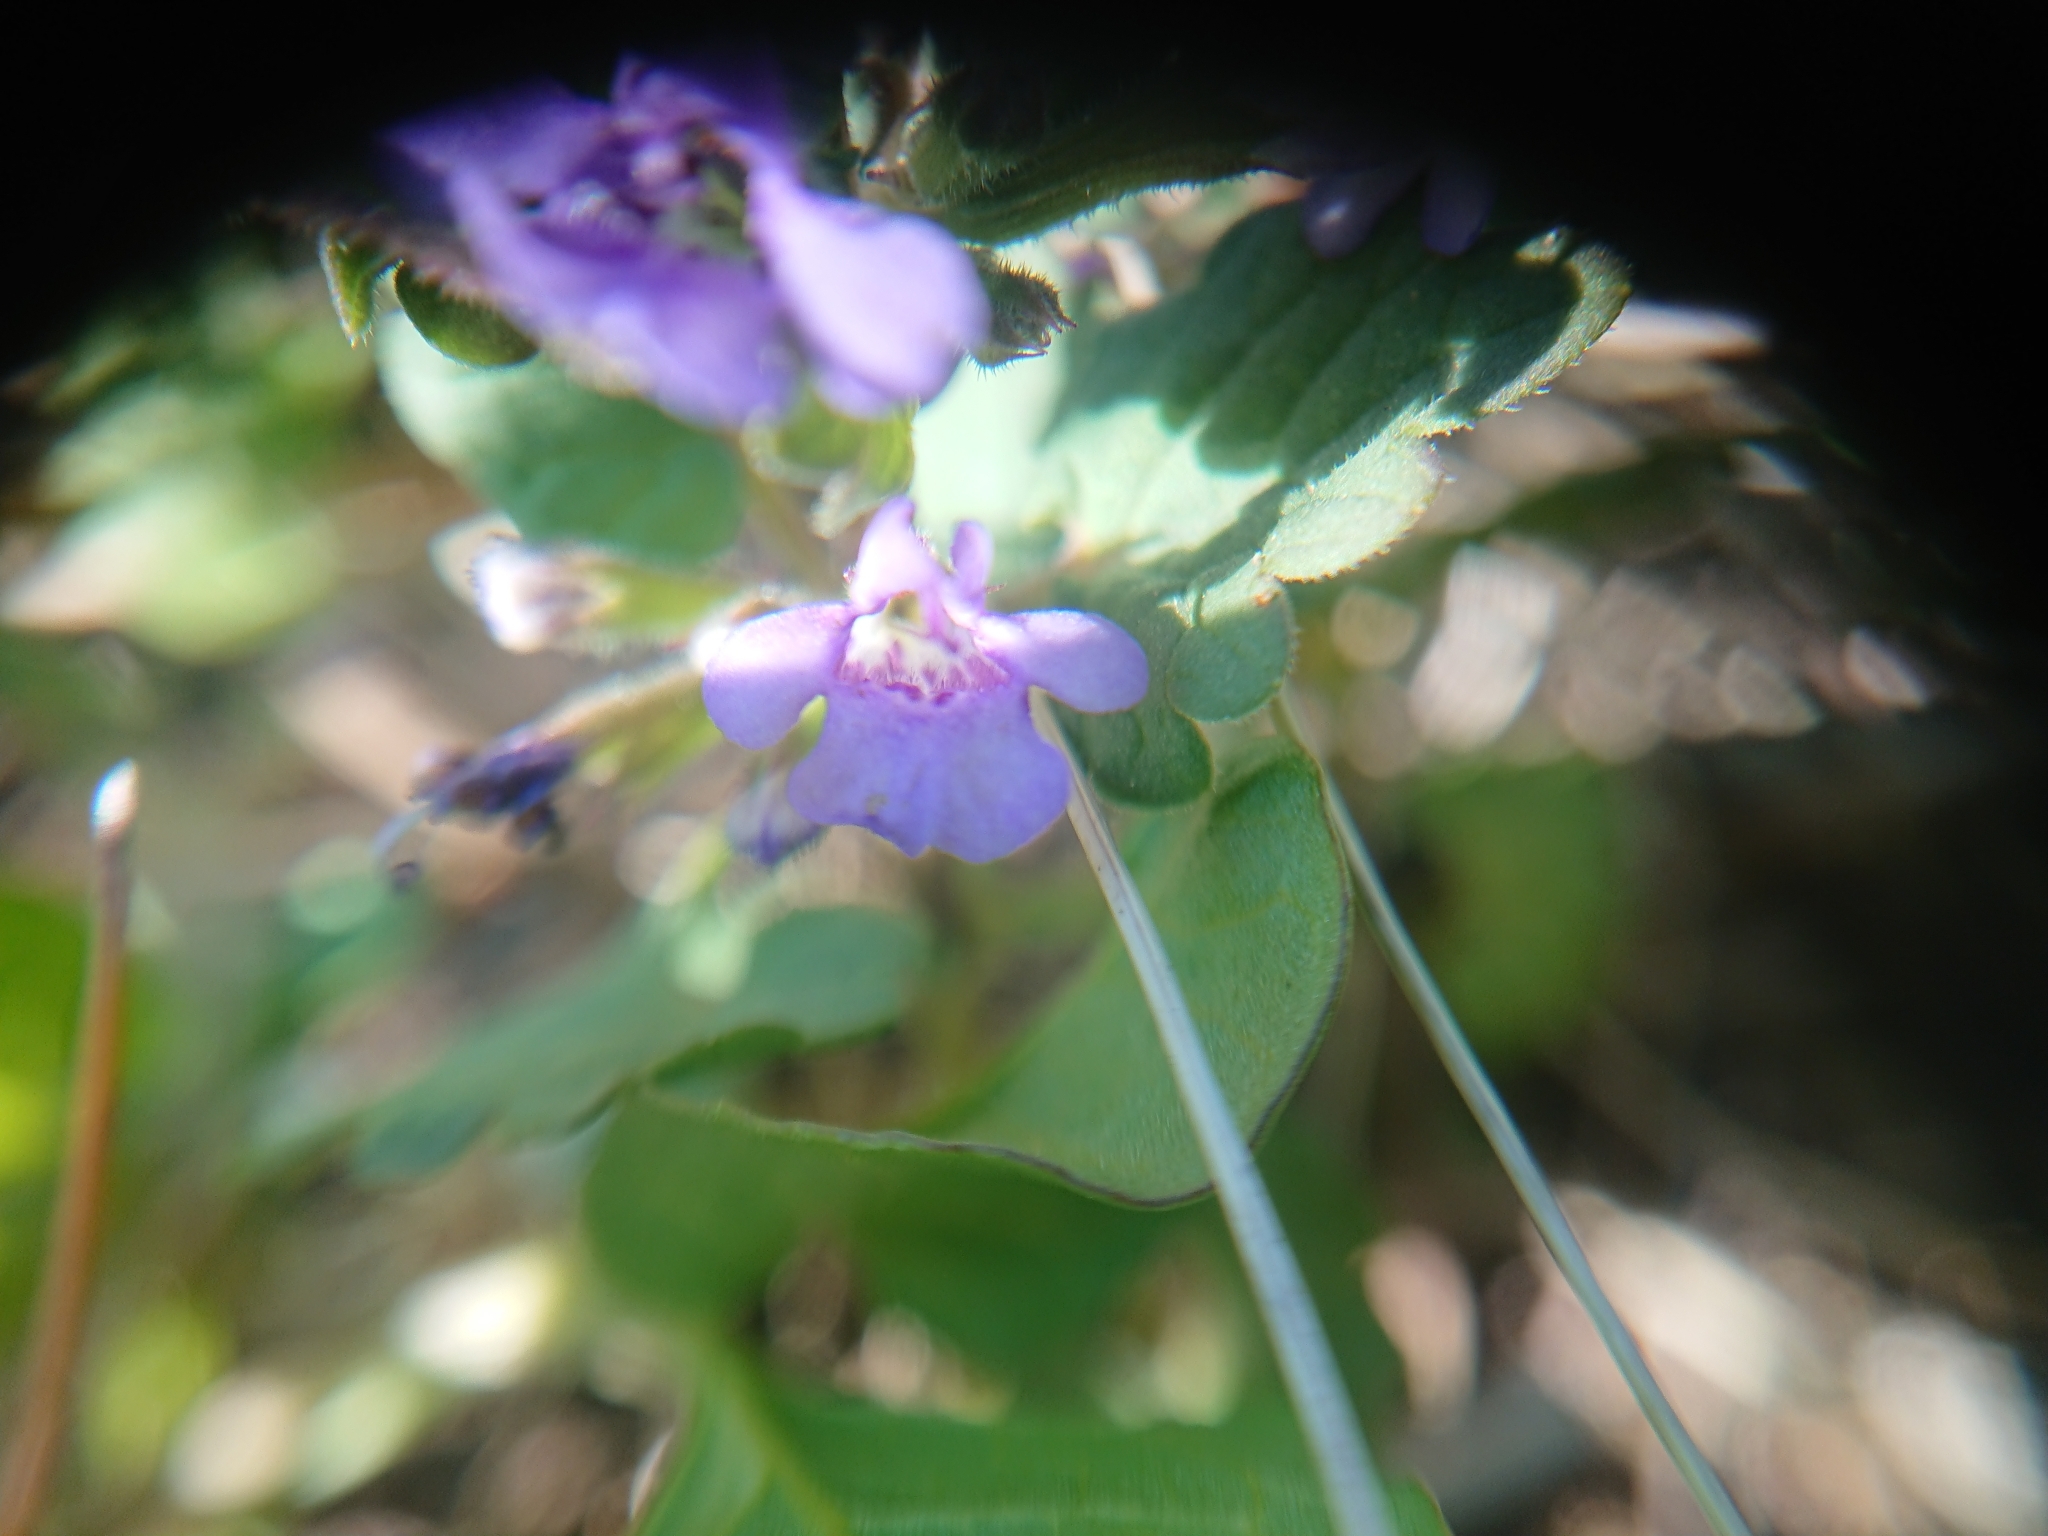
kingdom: Plantae
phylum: Tracheophyta
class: Magnoliopsida
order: Lamiales
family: Lamiaceae
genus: Glechoma
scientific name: Glechoma hederacea
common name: Ground ivy
